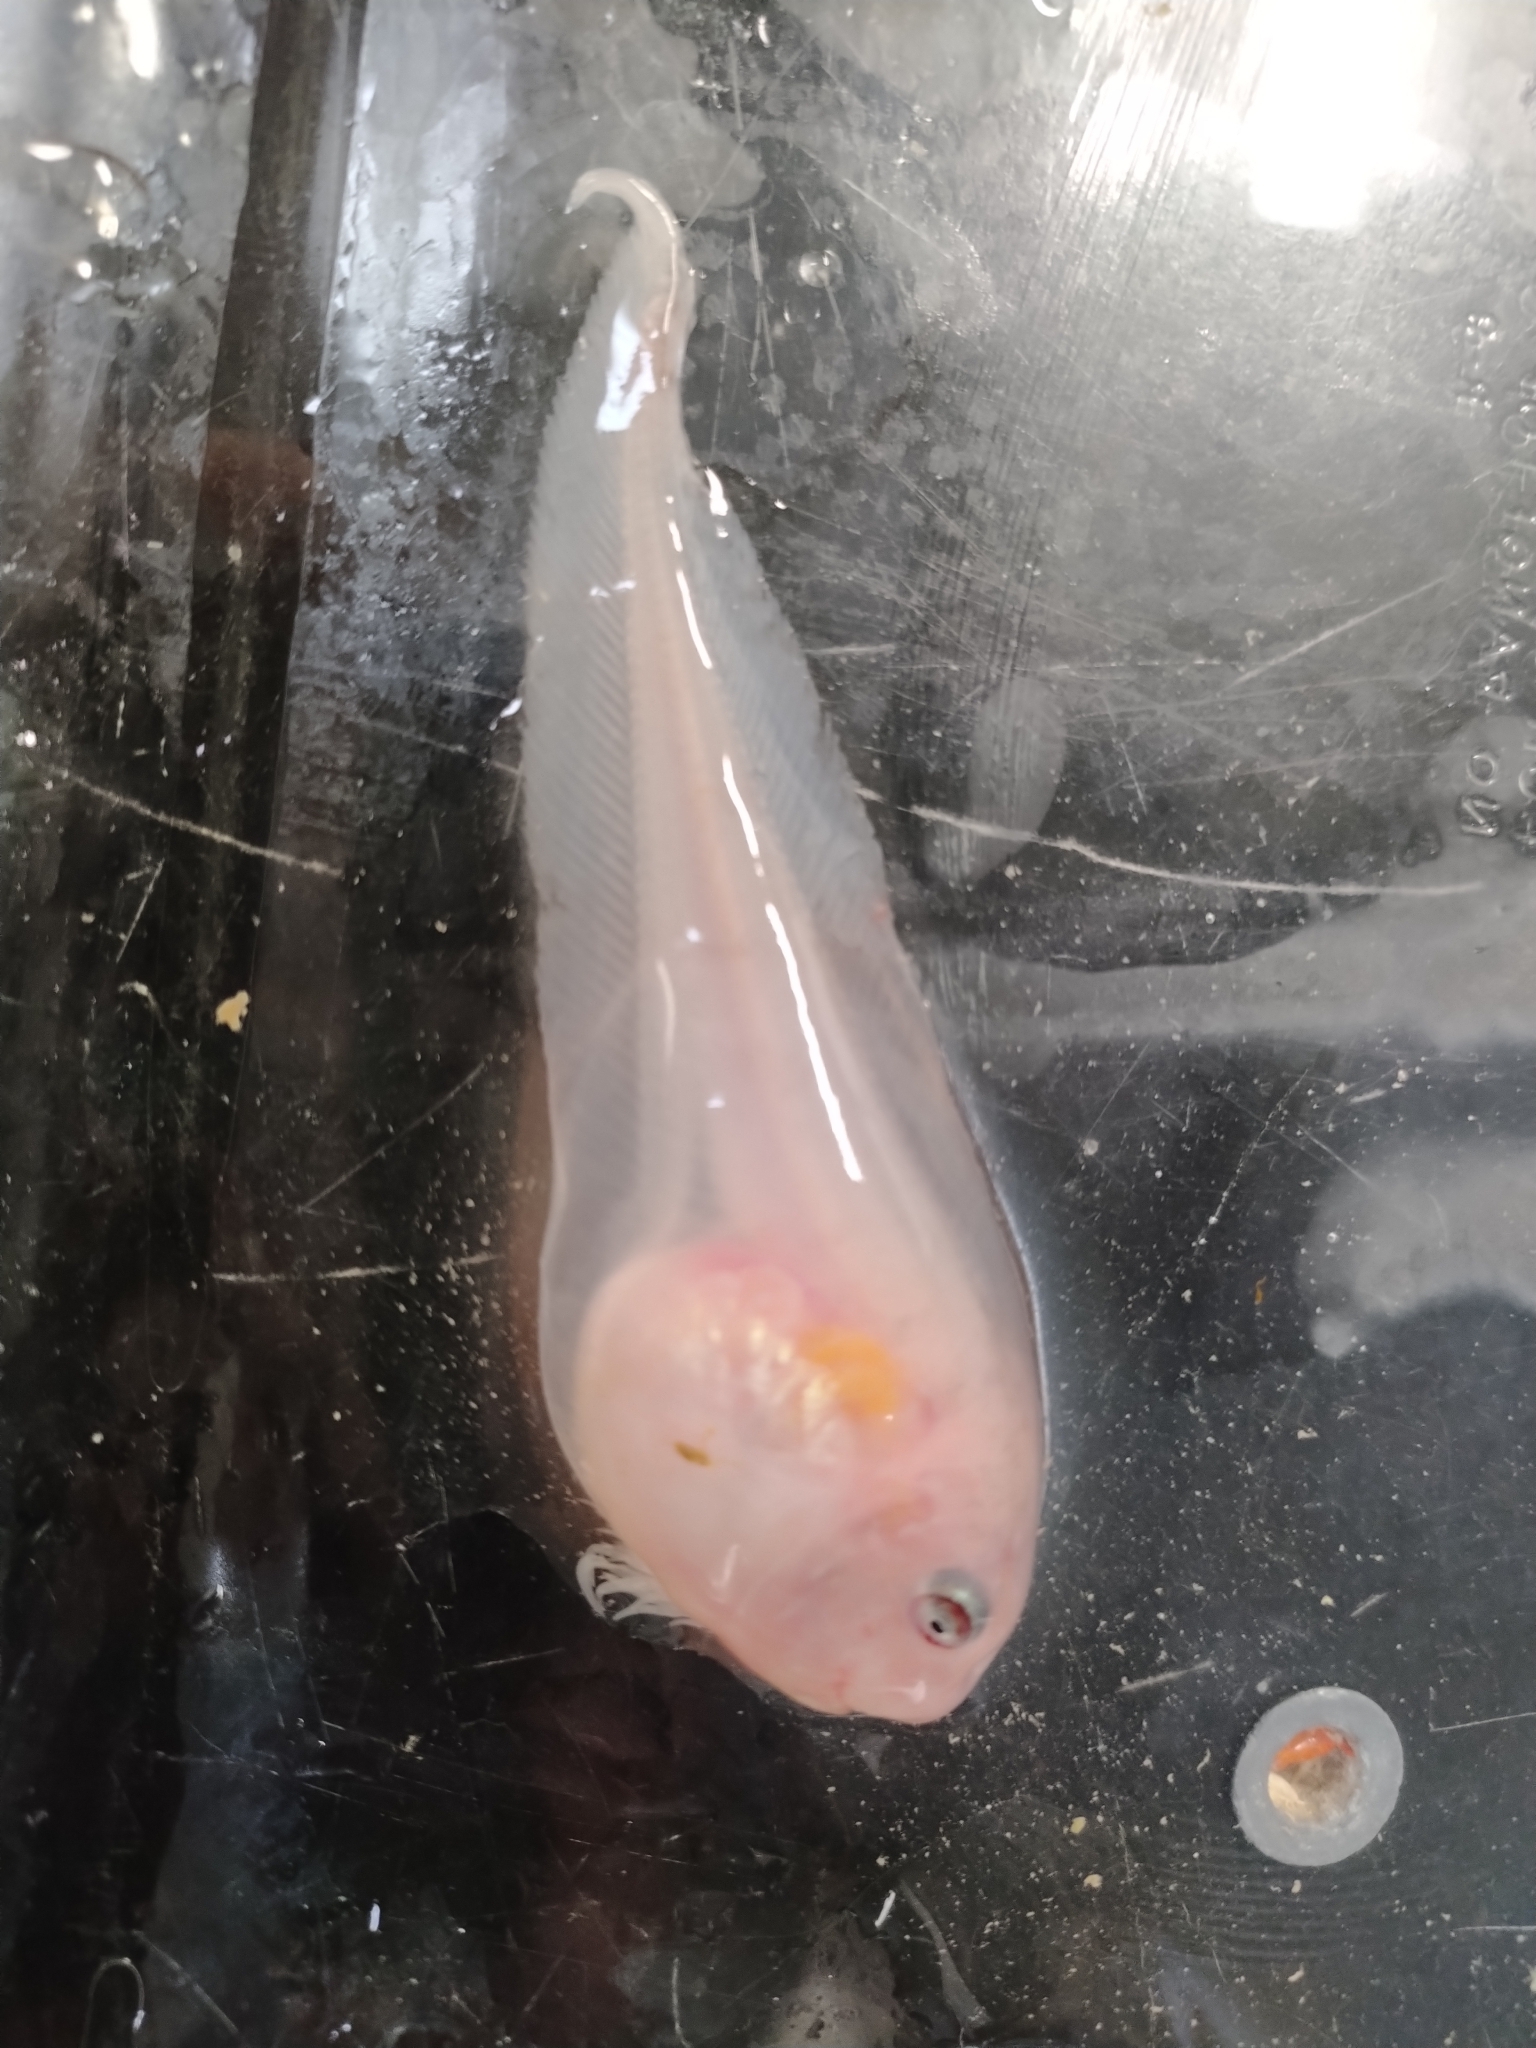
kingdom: Animalia
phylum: Chordata
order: Scorpaeniformes
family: Liparidae
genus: Careproctus
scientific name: Careproctus reinhardti
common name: Sea tadpole
